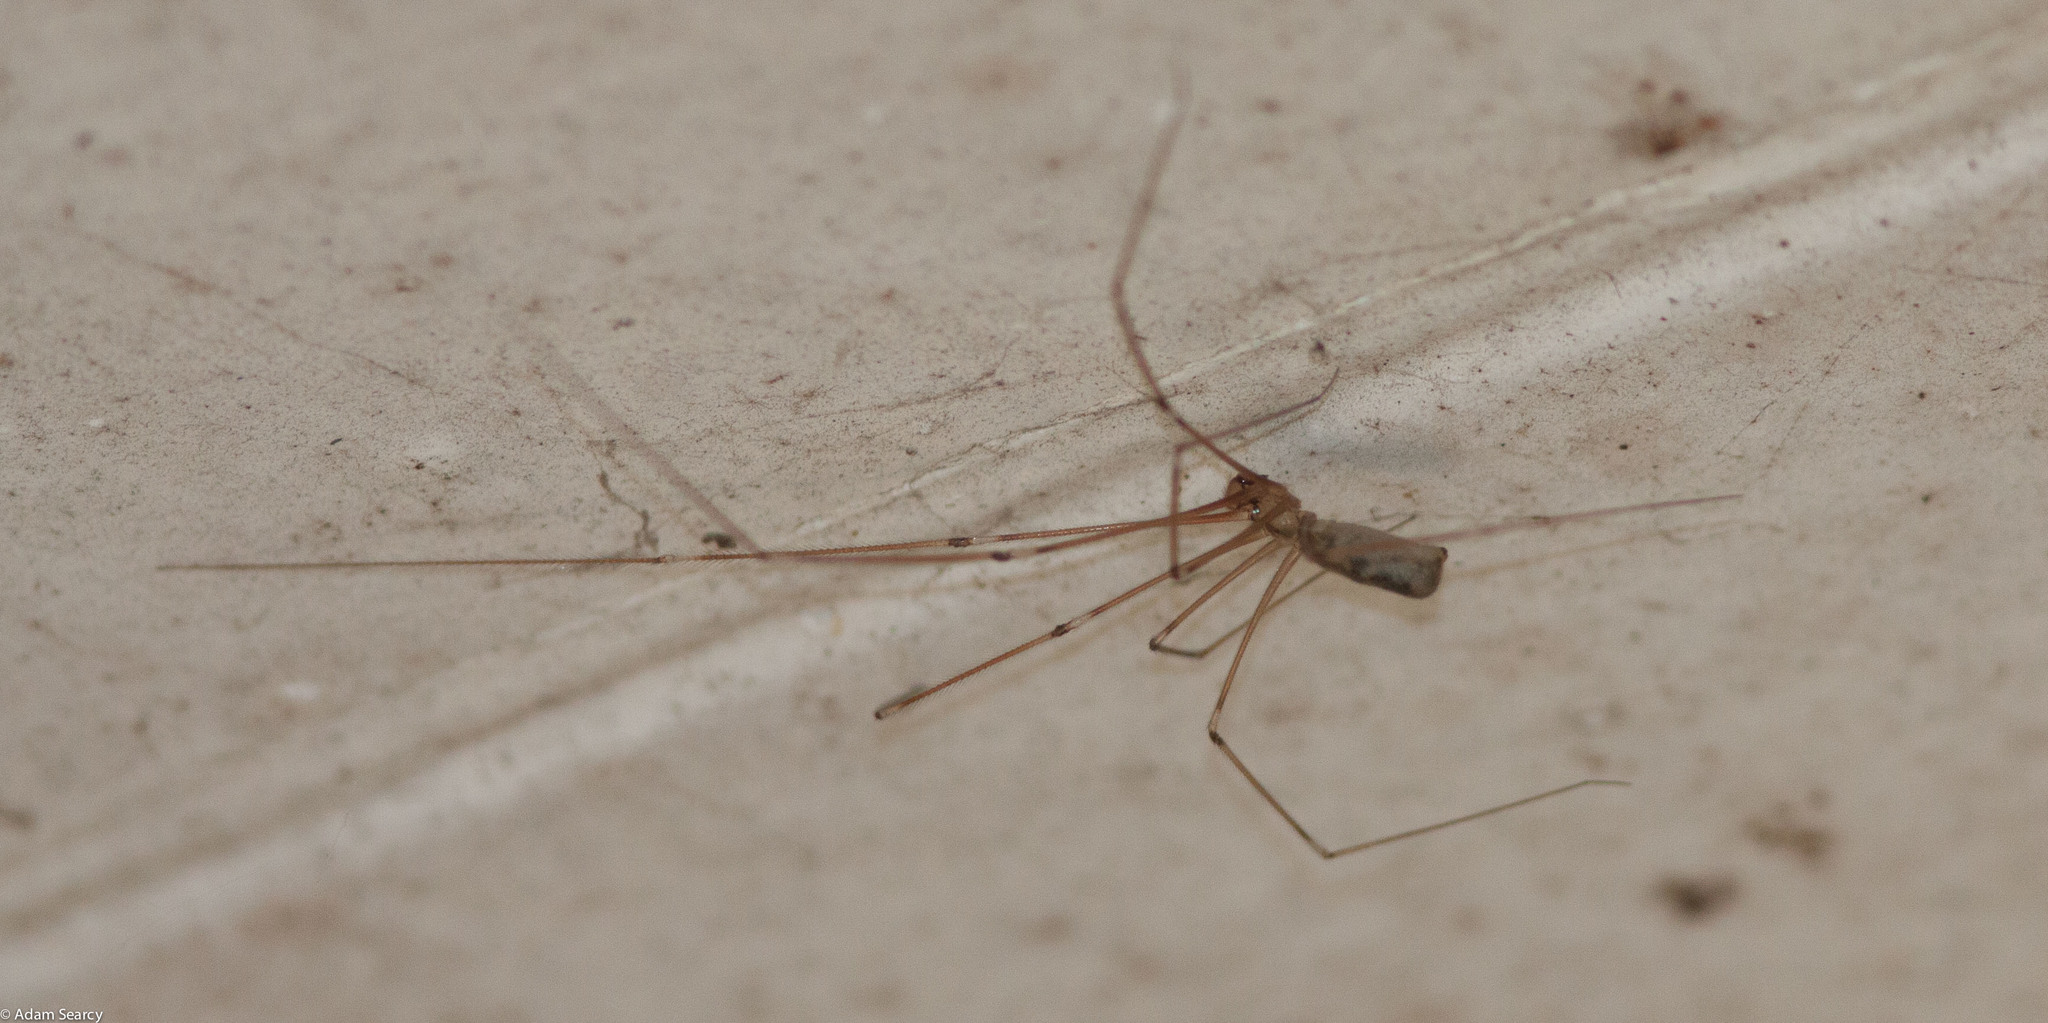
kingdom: Animalia
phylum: Arthropoda
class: Arachnida
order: Araneae
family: Pholcidae
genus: Pholcus
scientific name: Pholcus phalangioides
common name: Longbodied cellar spider
